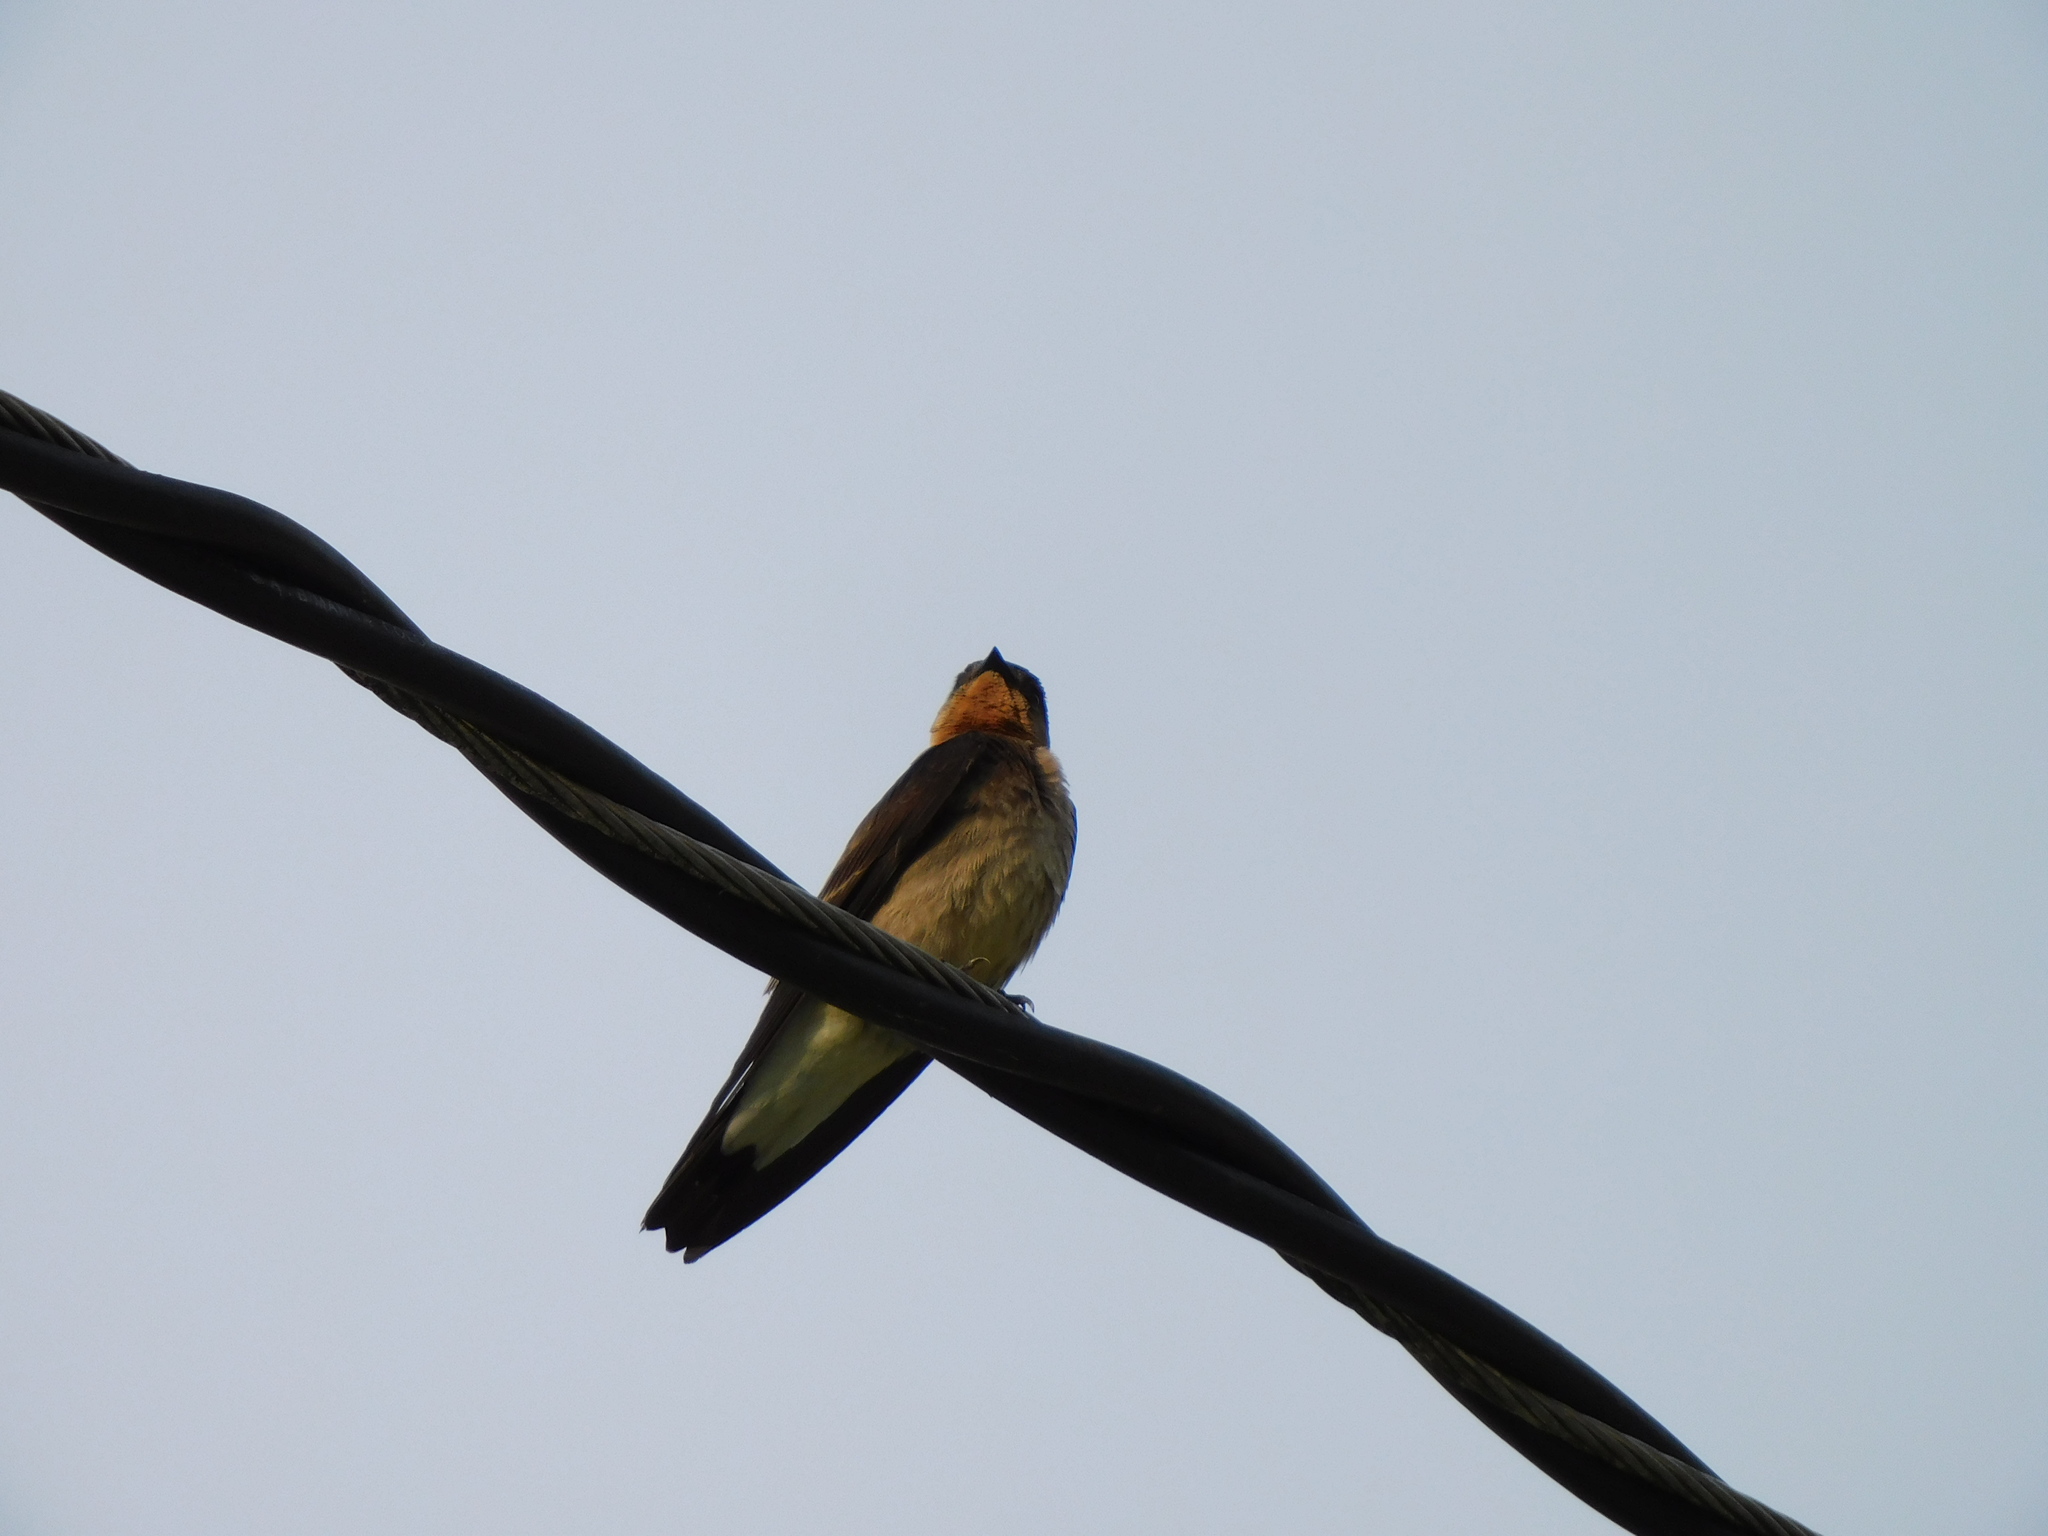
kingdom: Animalia
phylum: Chordata
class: Aves
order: Passeriformes
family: Hirundinidae
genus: Stelgidopteryx
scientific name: Stelgidopteryx ruficollis
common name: Southern rough-winged swallow
